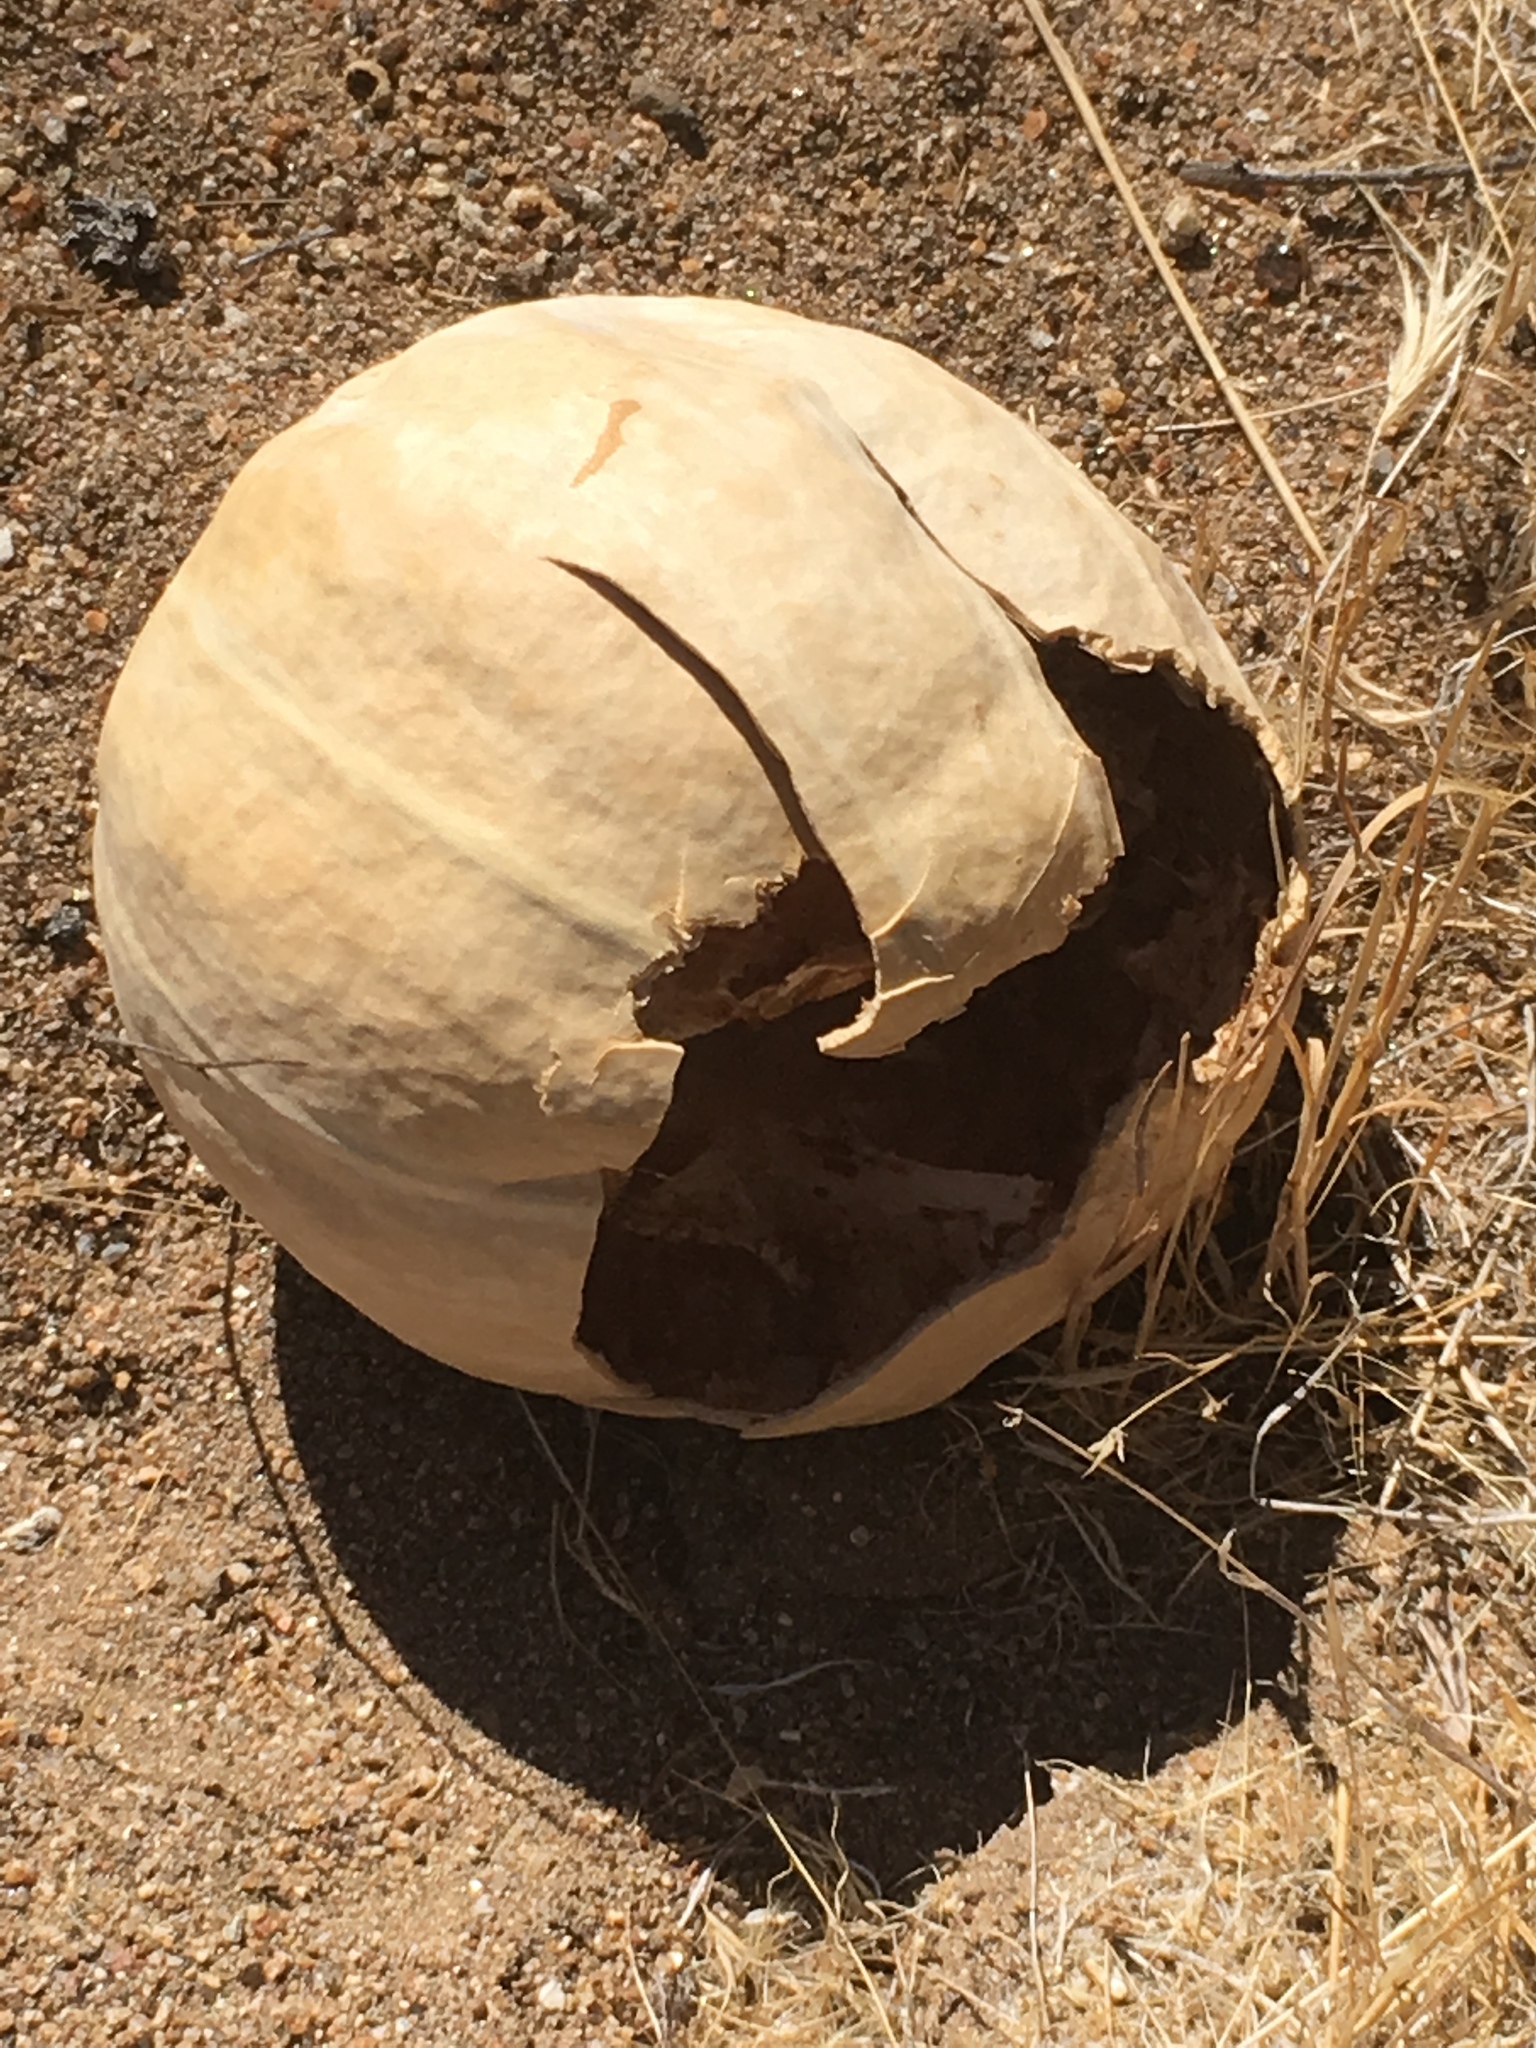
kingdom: Plantae
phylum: Tracheophyta
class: Magnoliopsida
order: Cucurbitales
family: Cucurbitaceae
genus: Cucurbita
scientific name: Cucurbita palmata
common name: Coyote-melon
